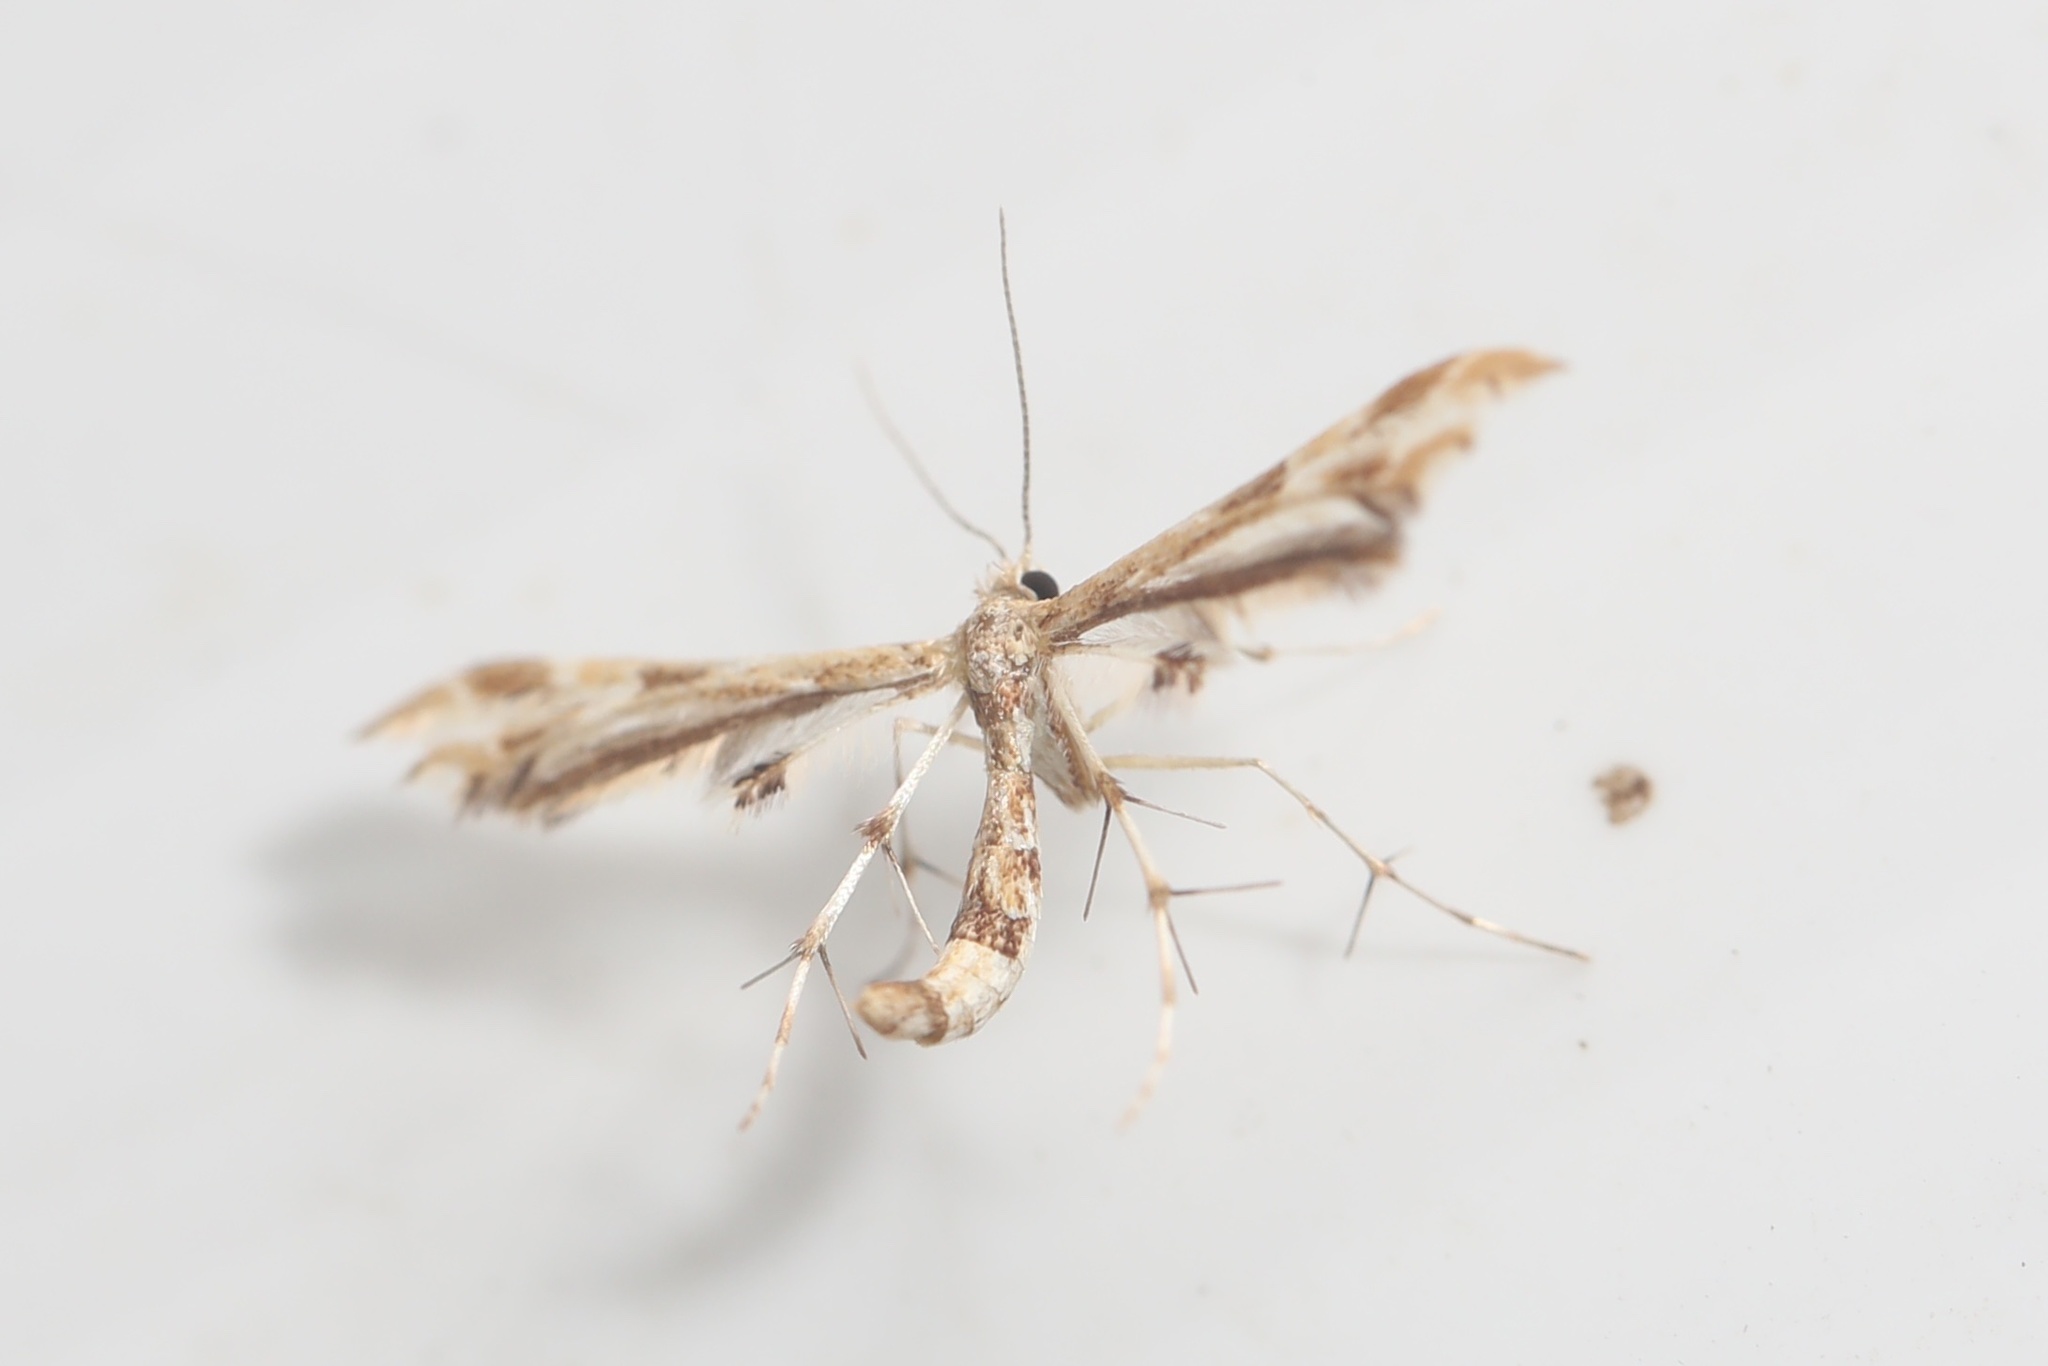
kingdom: Animalia
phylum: Arthropoda
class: Insecta
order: Lepidoptera
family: Pterophoridae
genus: Sphenarches
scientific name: Sphenarches ontario
